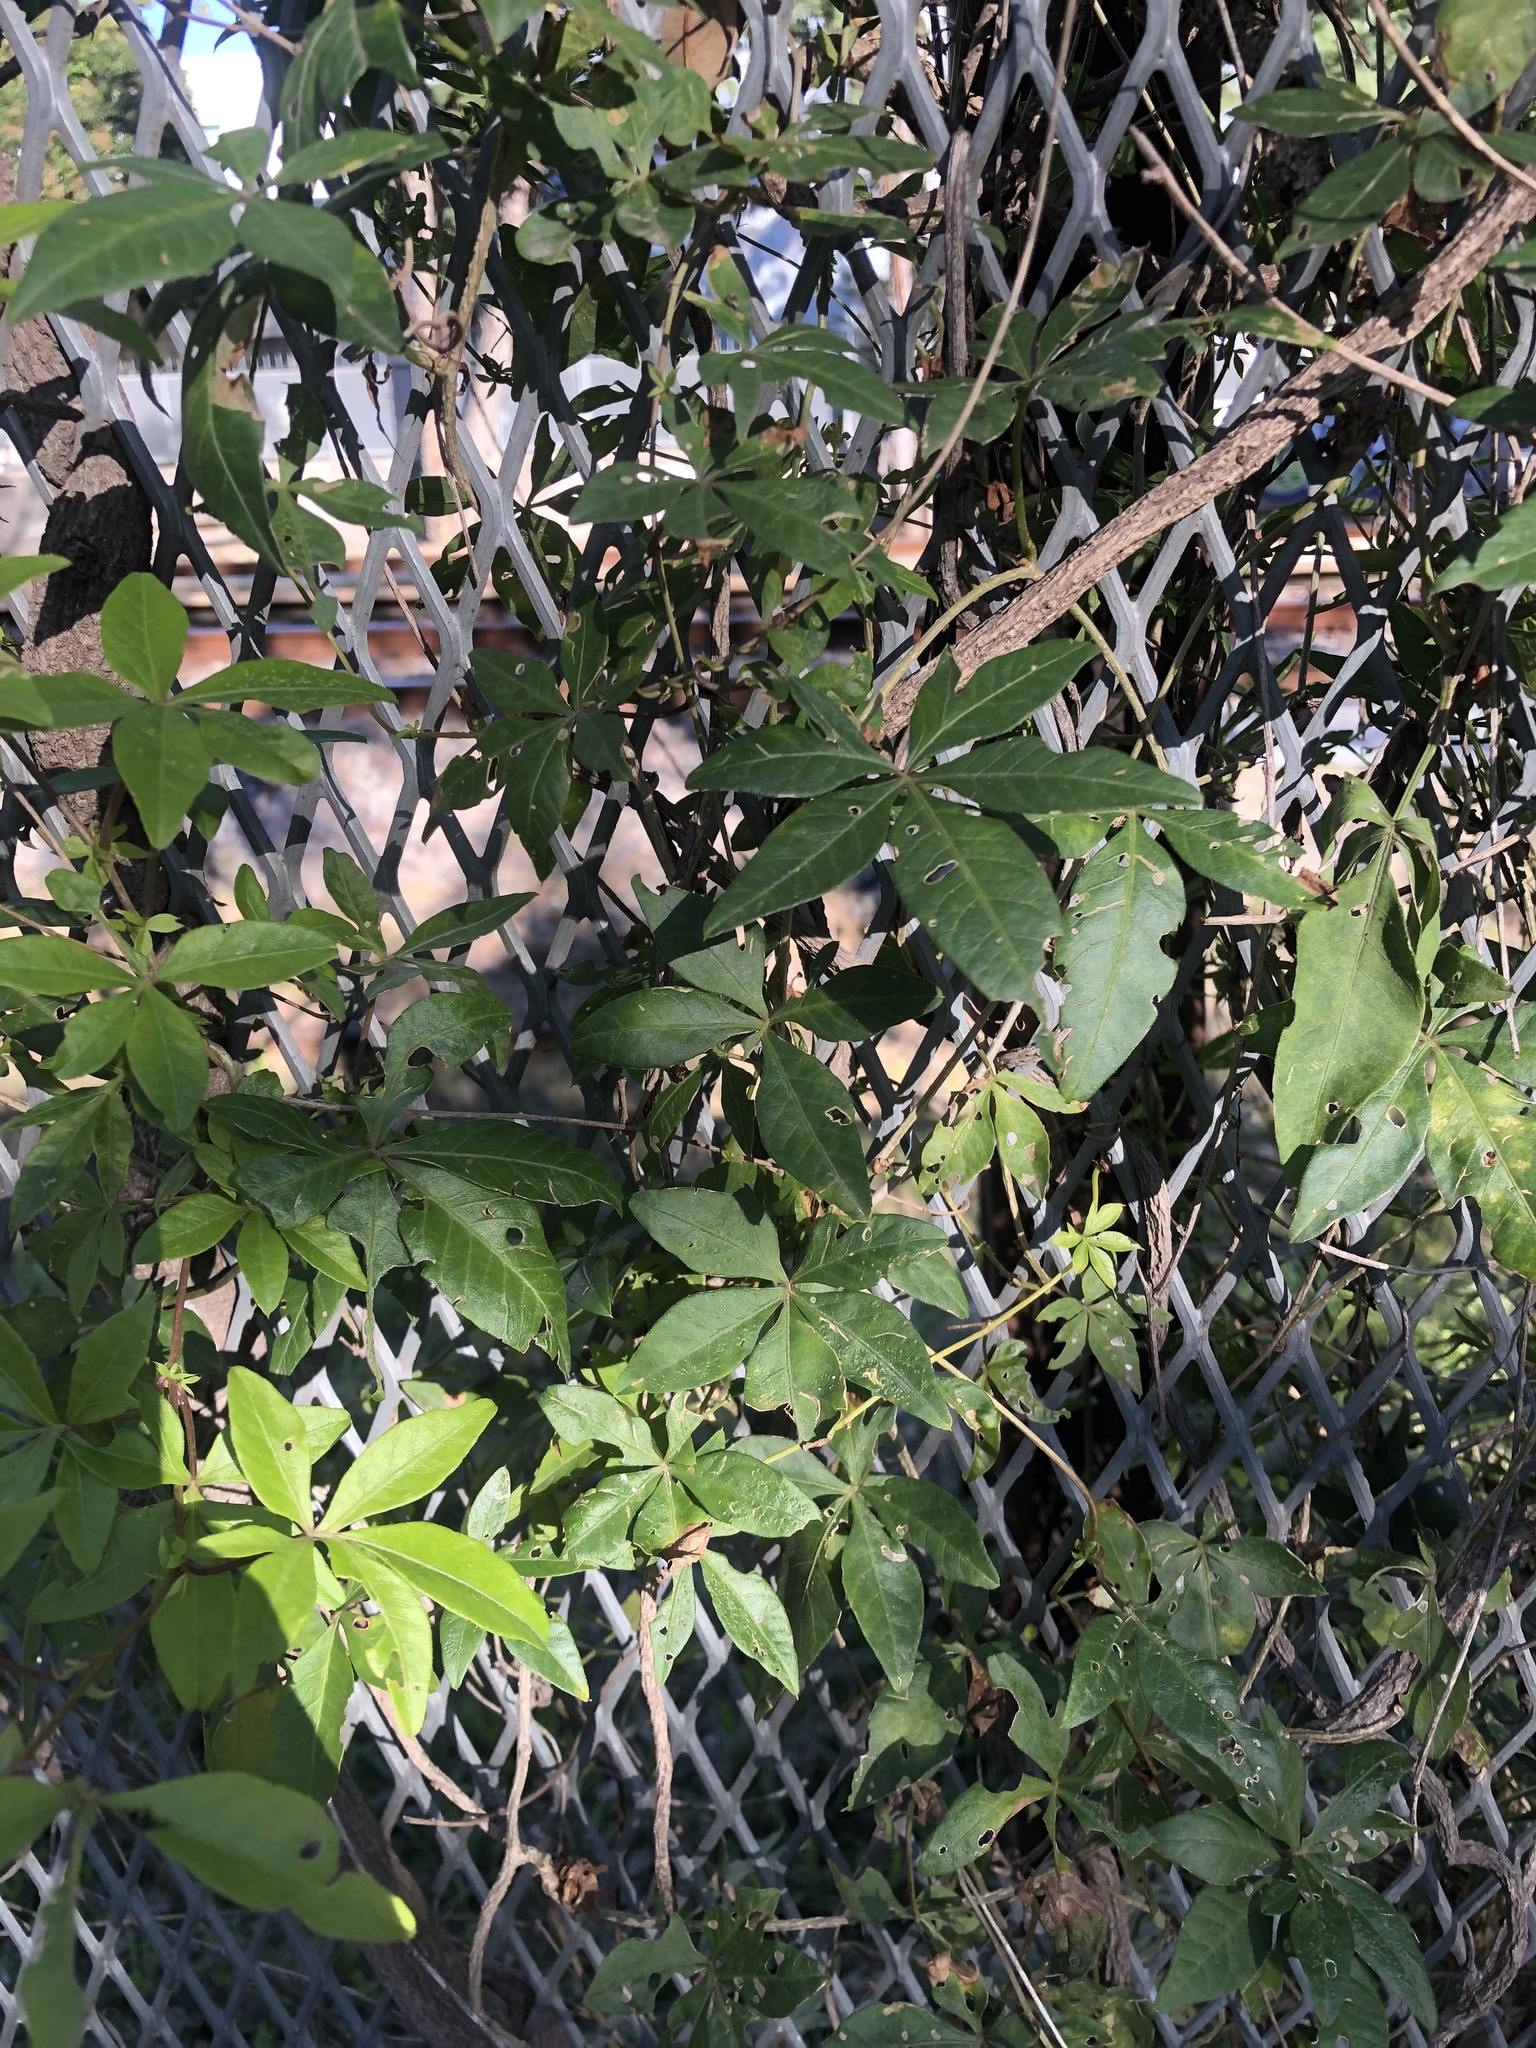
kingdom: Plantae
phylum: Tracheophyta
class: Magnoliopsida
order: Solanales
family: Convolvulaceae
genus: Ipomoea
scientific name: Ipomoea cairica
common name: Mile a minute vine
